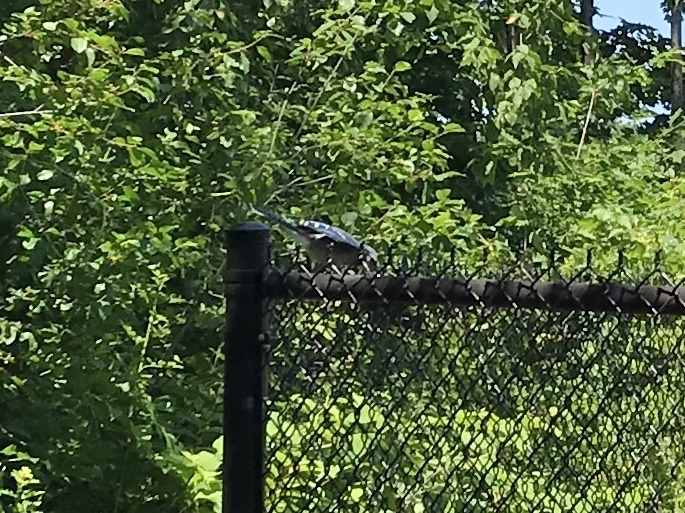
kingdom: Animalia
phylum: Chordata
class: Aves
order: Passeriformes
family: Corvidae
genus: Cyanocitta
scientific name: Cyanocitta cristata
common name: Blue jay
